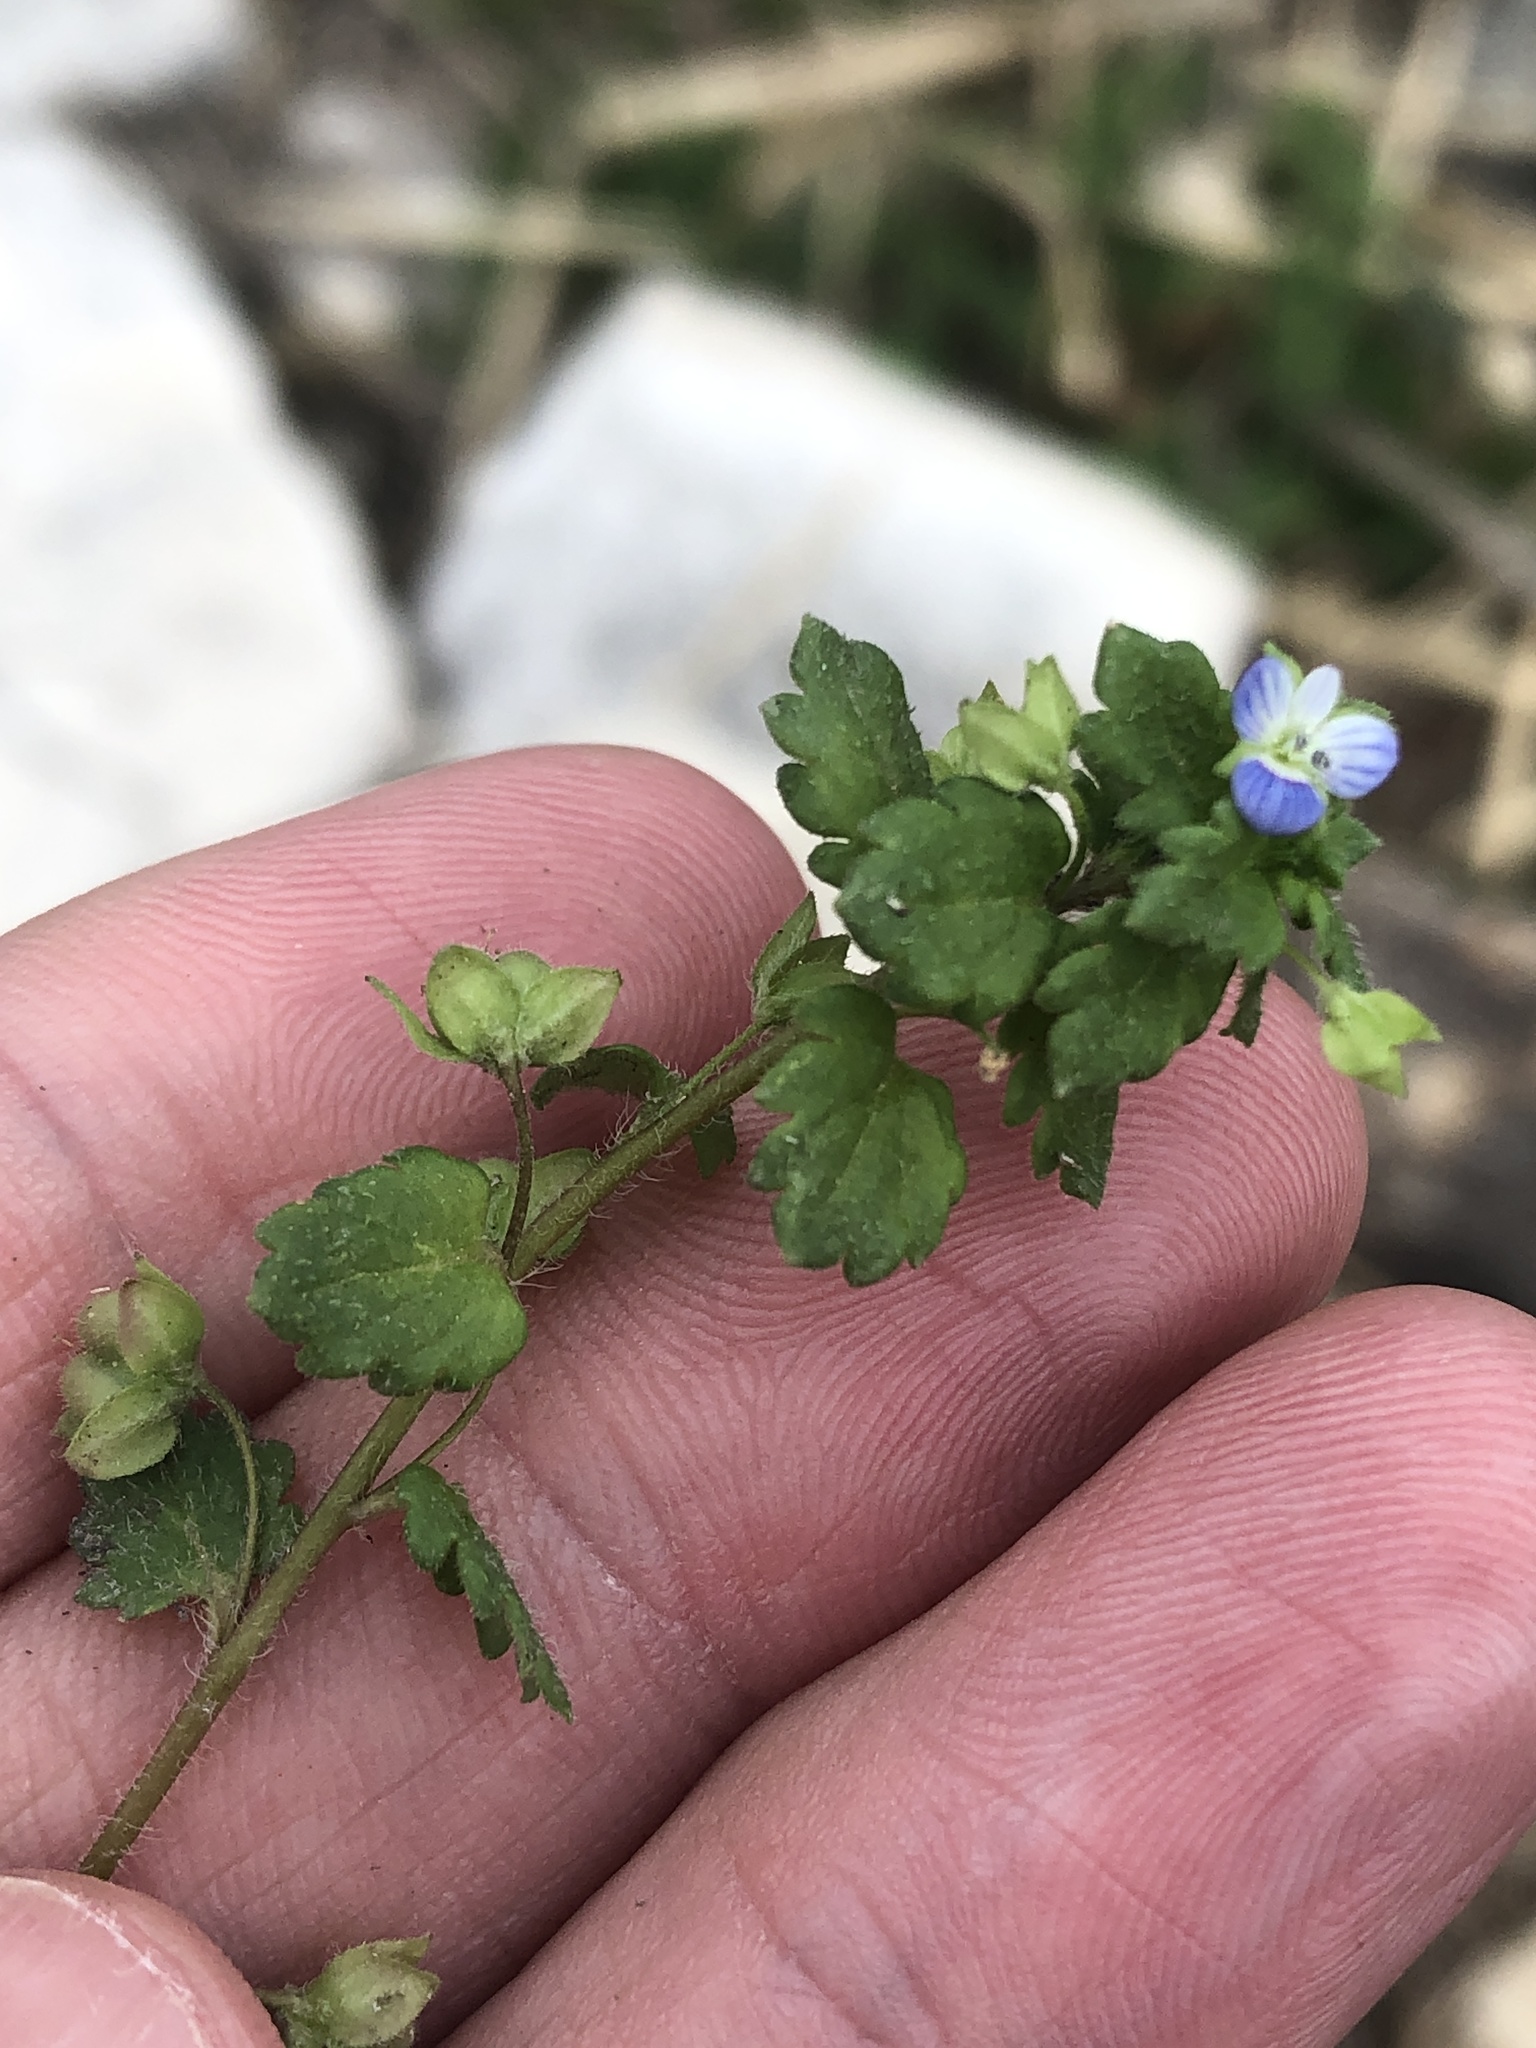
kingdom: Plantae
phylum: Tracheophyta
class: Magnoliopsida
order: Lamiales
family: Plantaginaceae
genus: Veronica
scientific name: Veronica polita
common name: Grey field-speedwell
